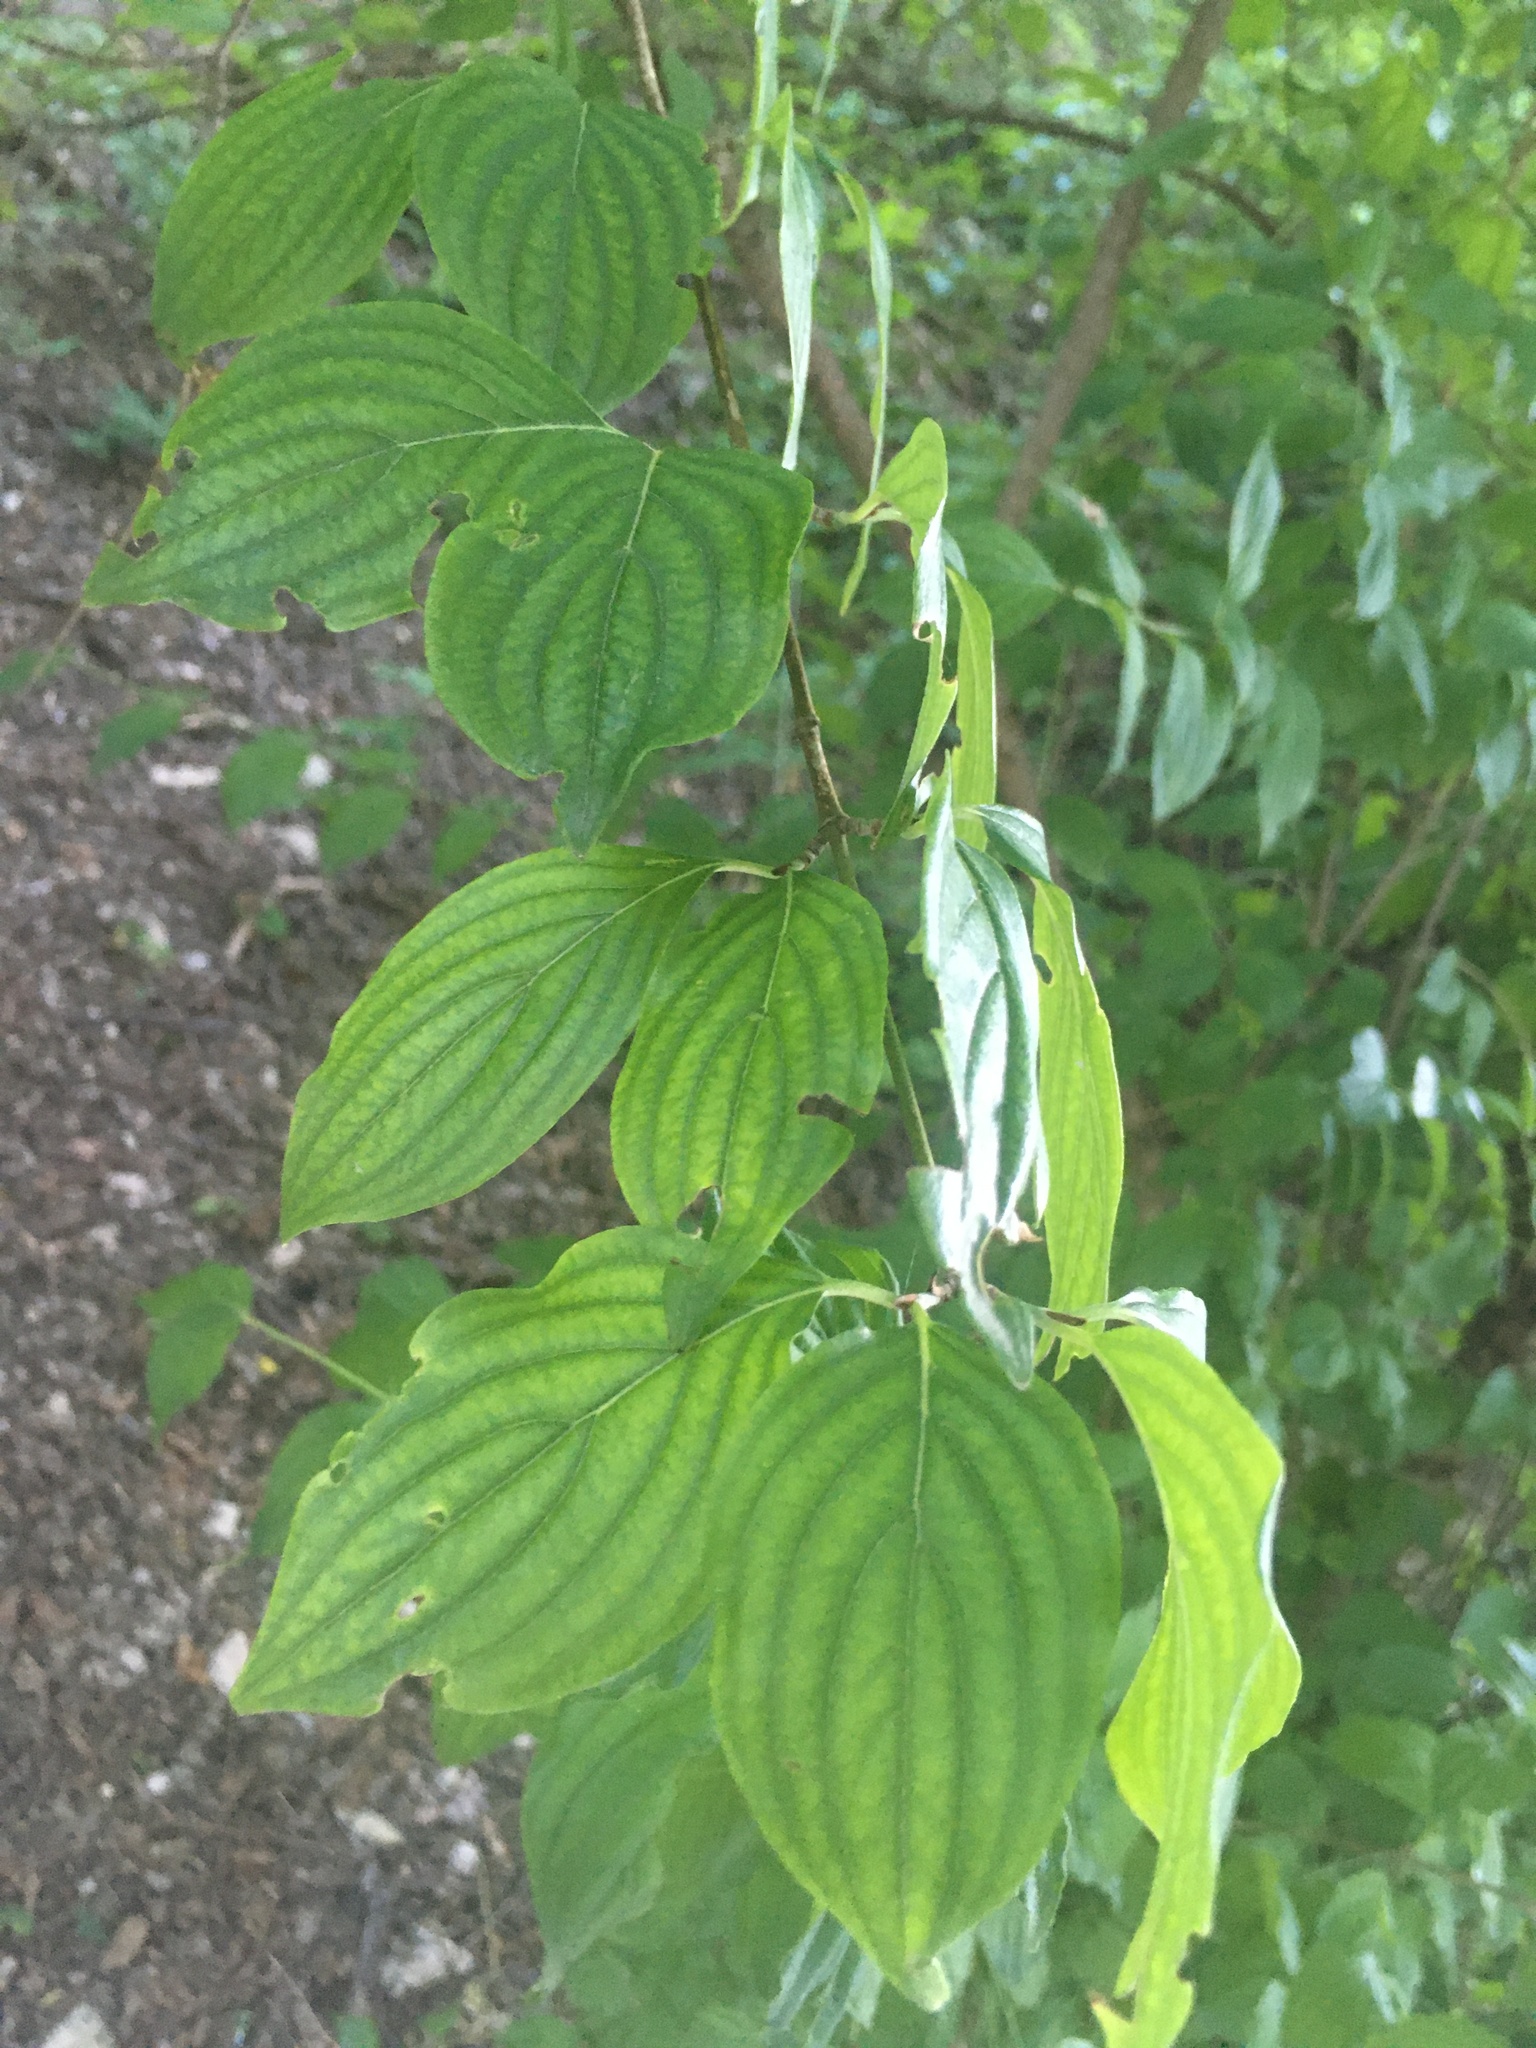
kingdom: Plantae
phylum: Tracheophyta
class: Magnoliopsida
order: Cornales
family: Cornaceae
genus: Cornus
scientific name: Cornus sanguinea
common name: Dogwood
